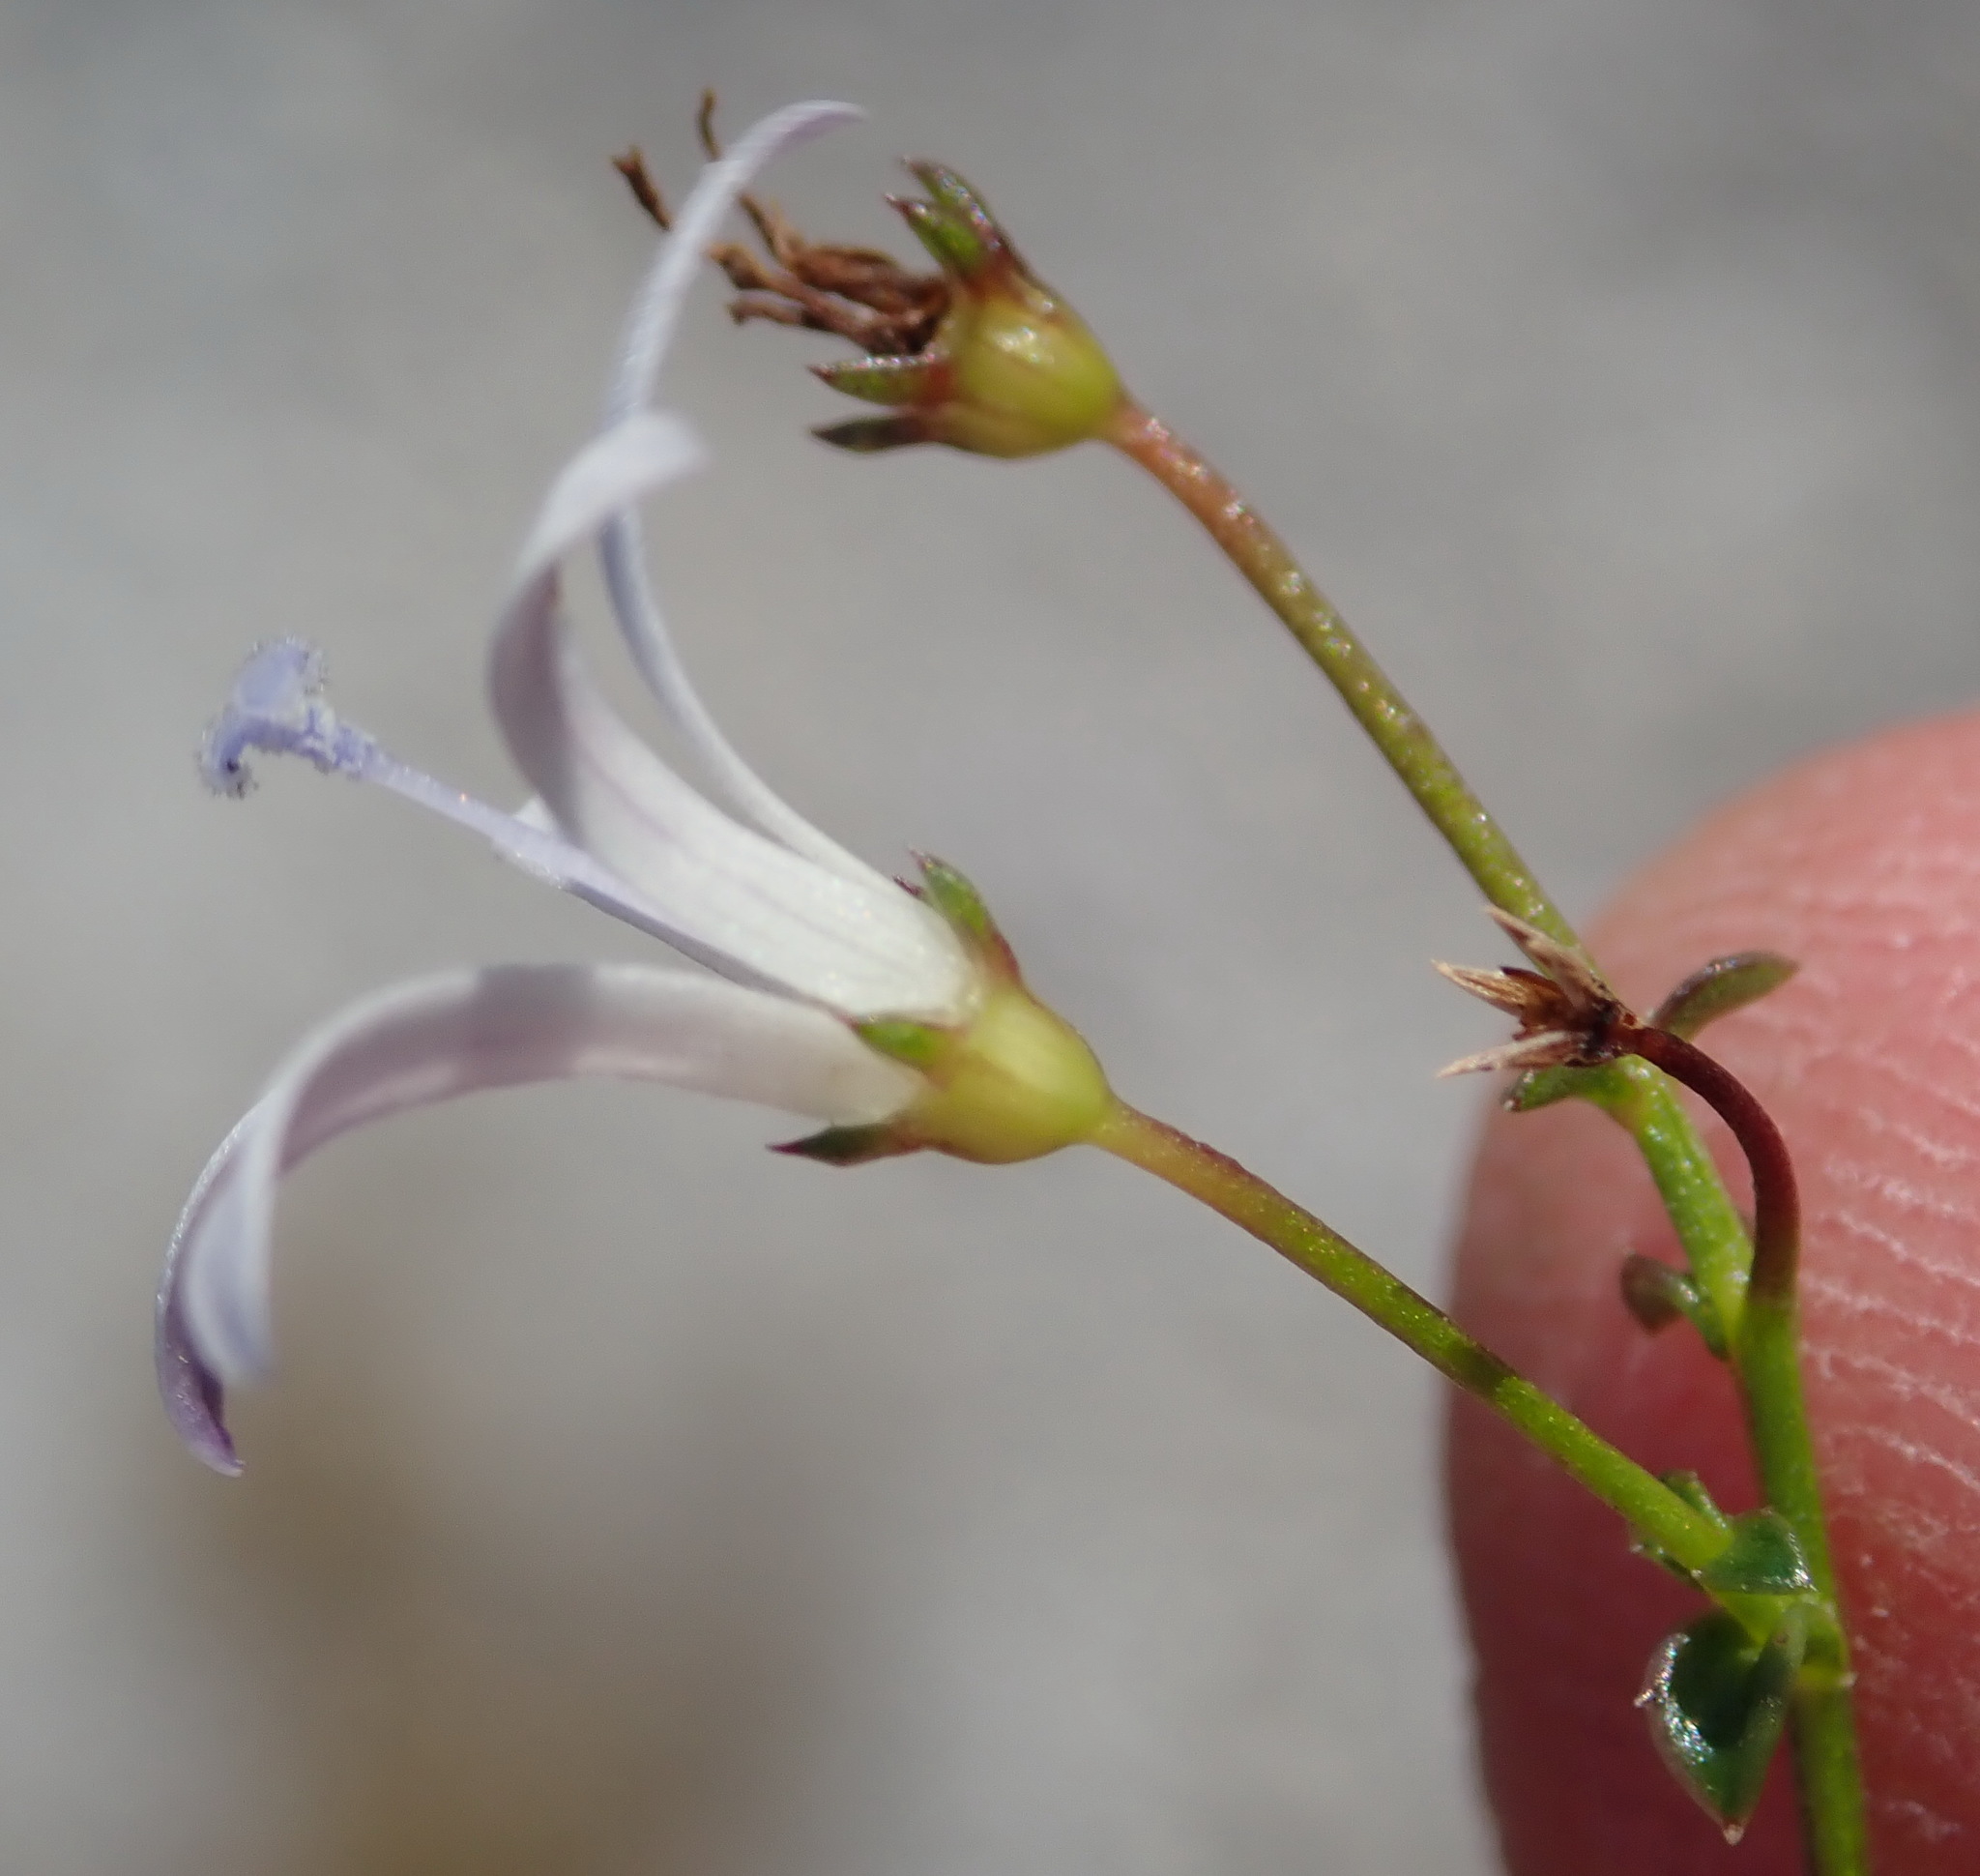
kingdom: Plantae
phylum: Tracheophyta
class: Magnoliopsida
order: Asterales
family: Campanulaceae
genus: Wahlenbergia
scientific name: Wahlenbergia loddigesii
